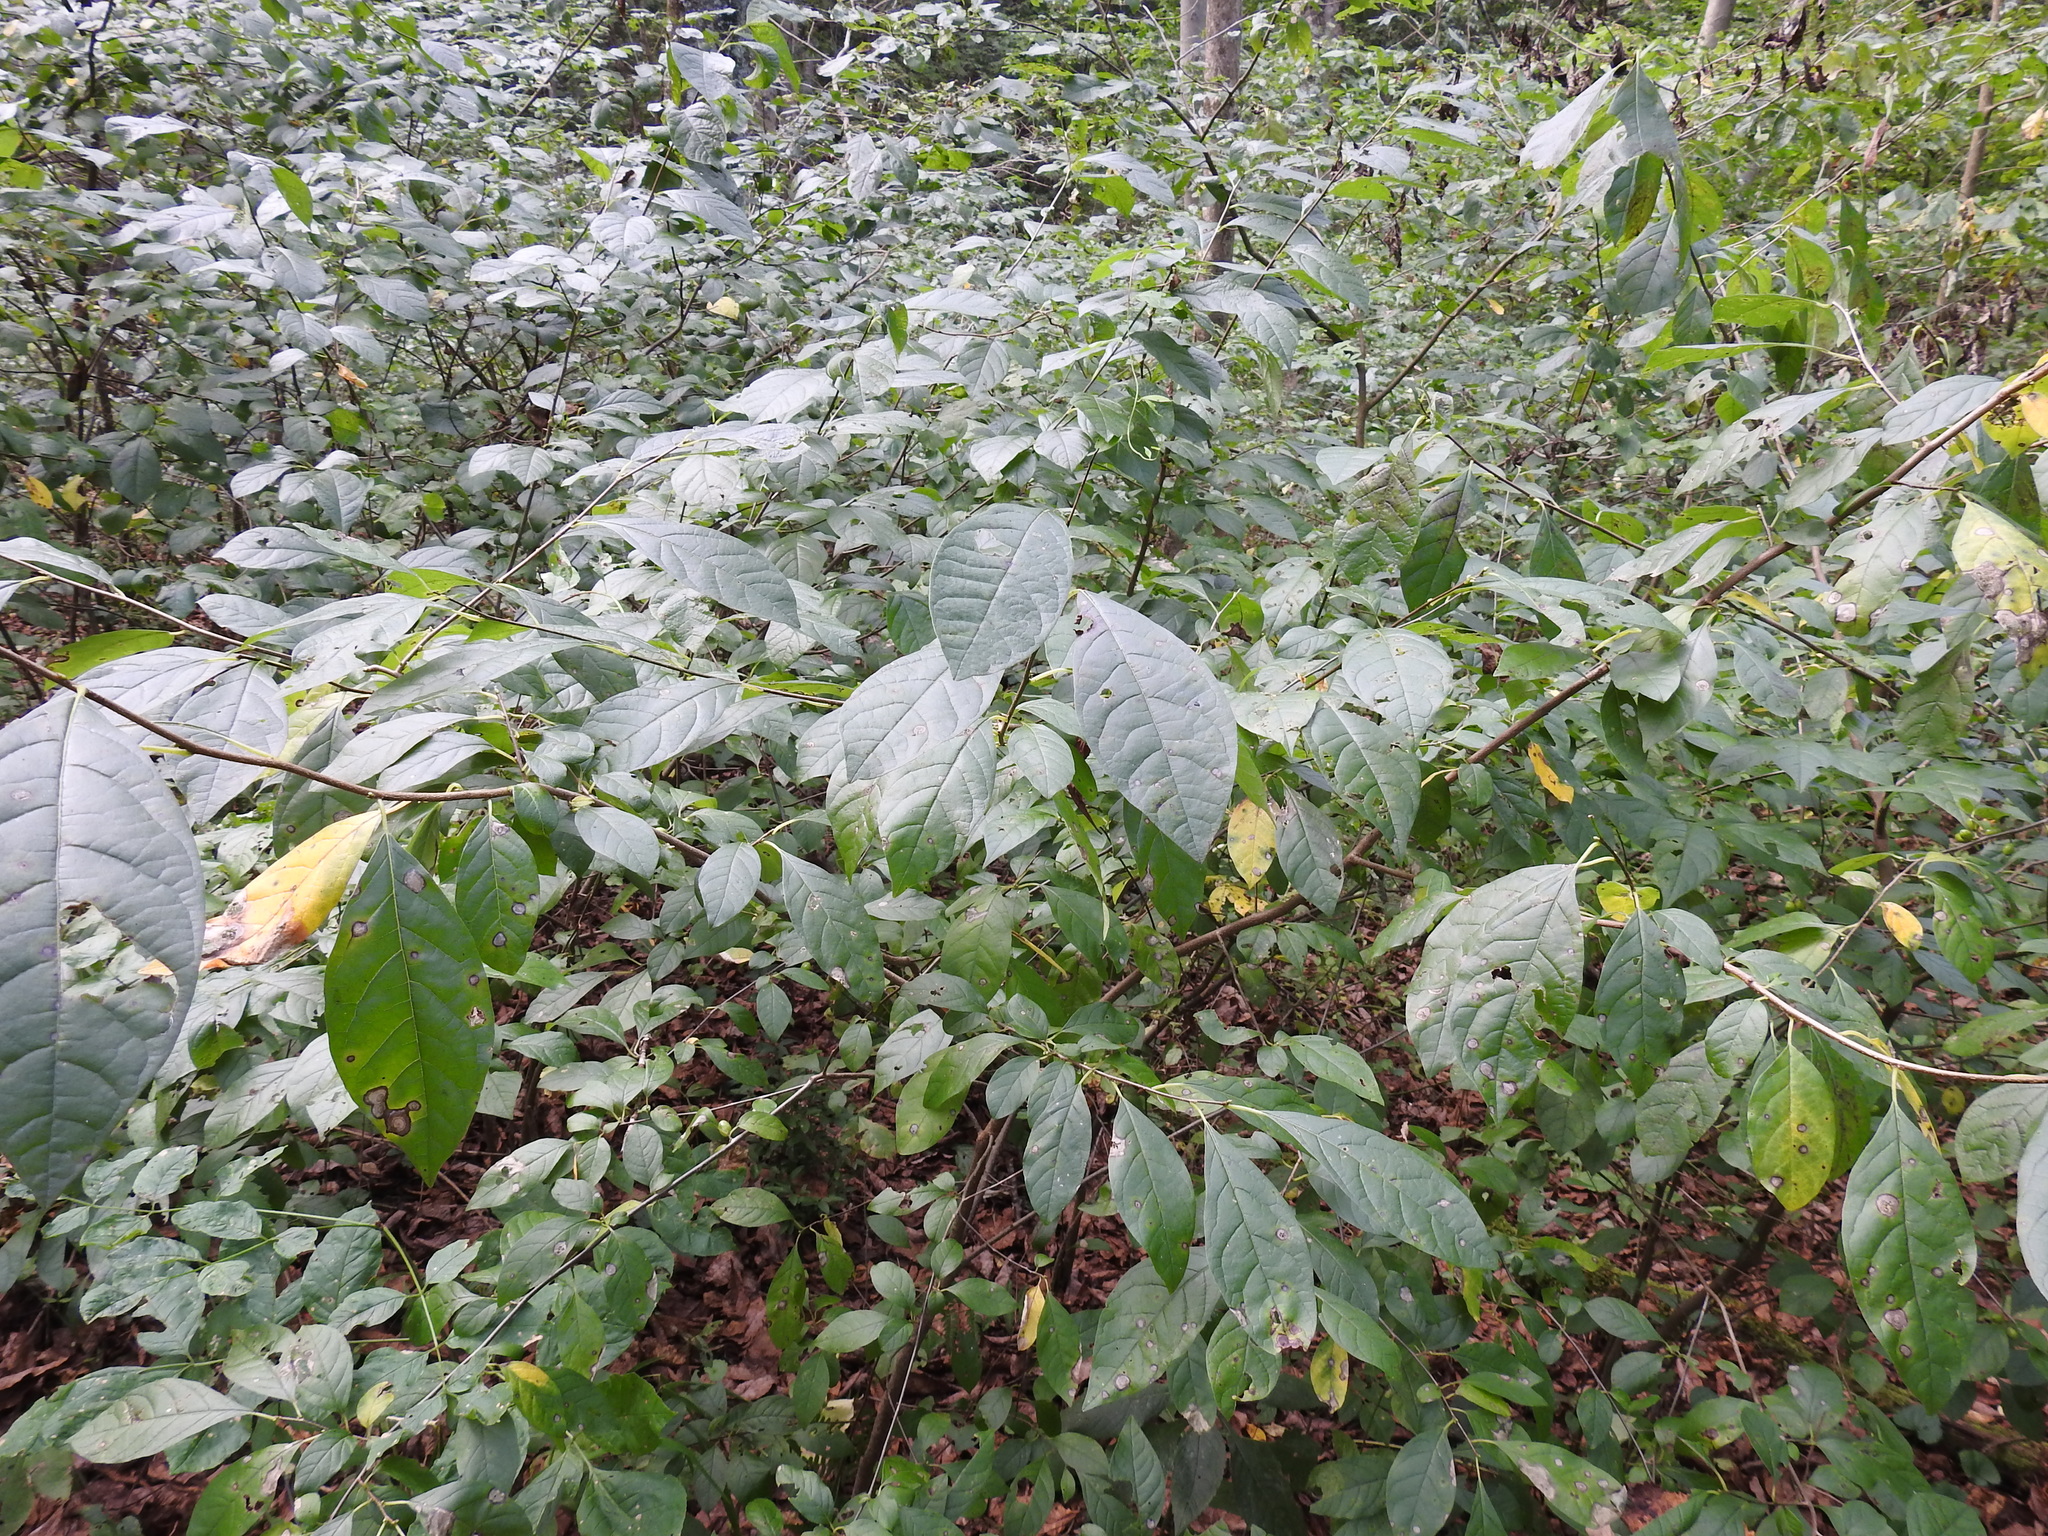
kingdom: Plantae
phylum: Tracheophyta
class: Magnoliopsida
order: Laurales
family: Lauraceae
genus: Lindera
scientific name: Lindera benzoin
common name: Spicebush
